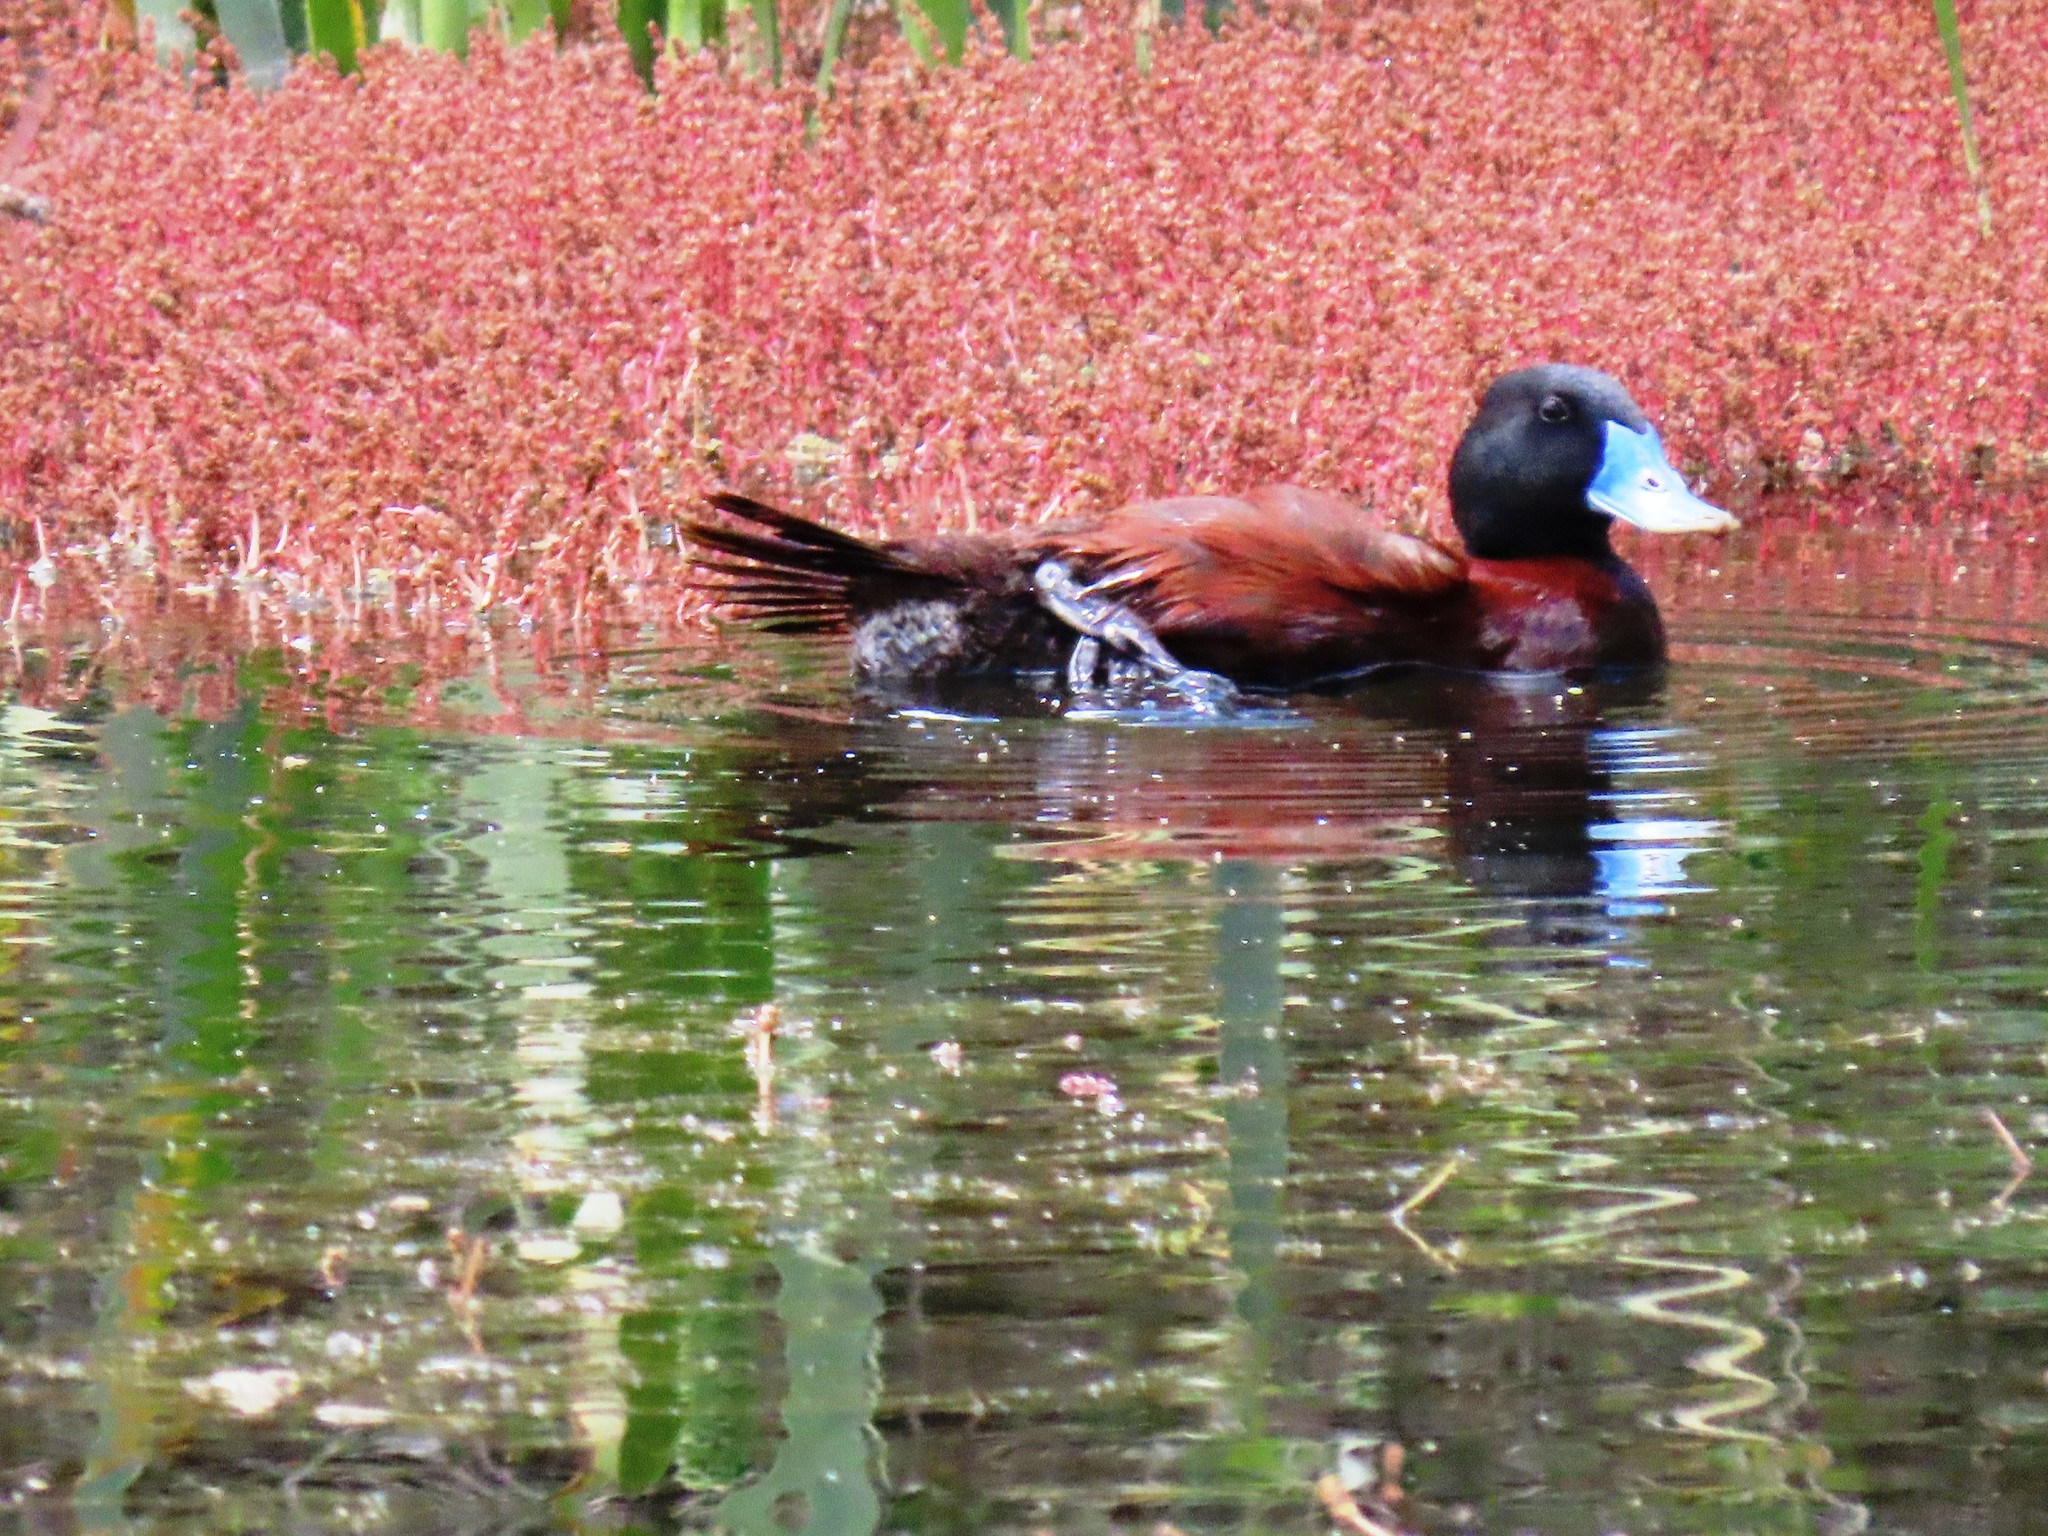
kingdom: Animalia
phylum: Chordata
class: Aves
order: Anseriformes
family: Anatidae
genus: Oxyura
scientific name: Oxyura australis
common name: Blue-billed duck
